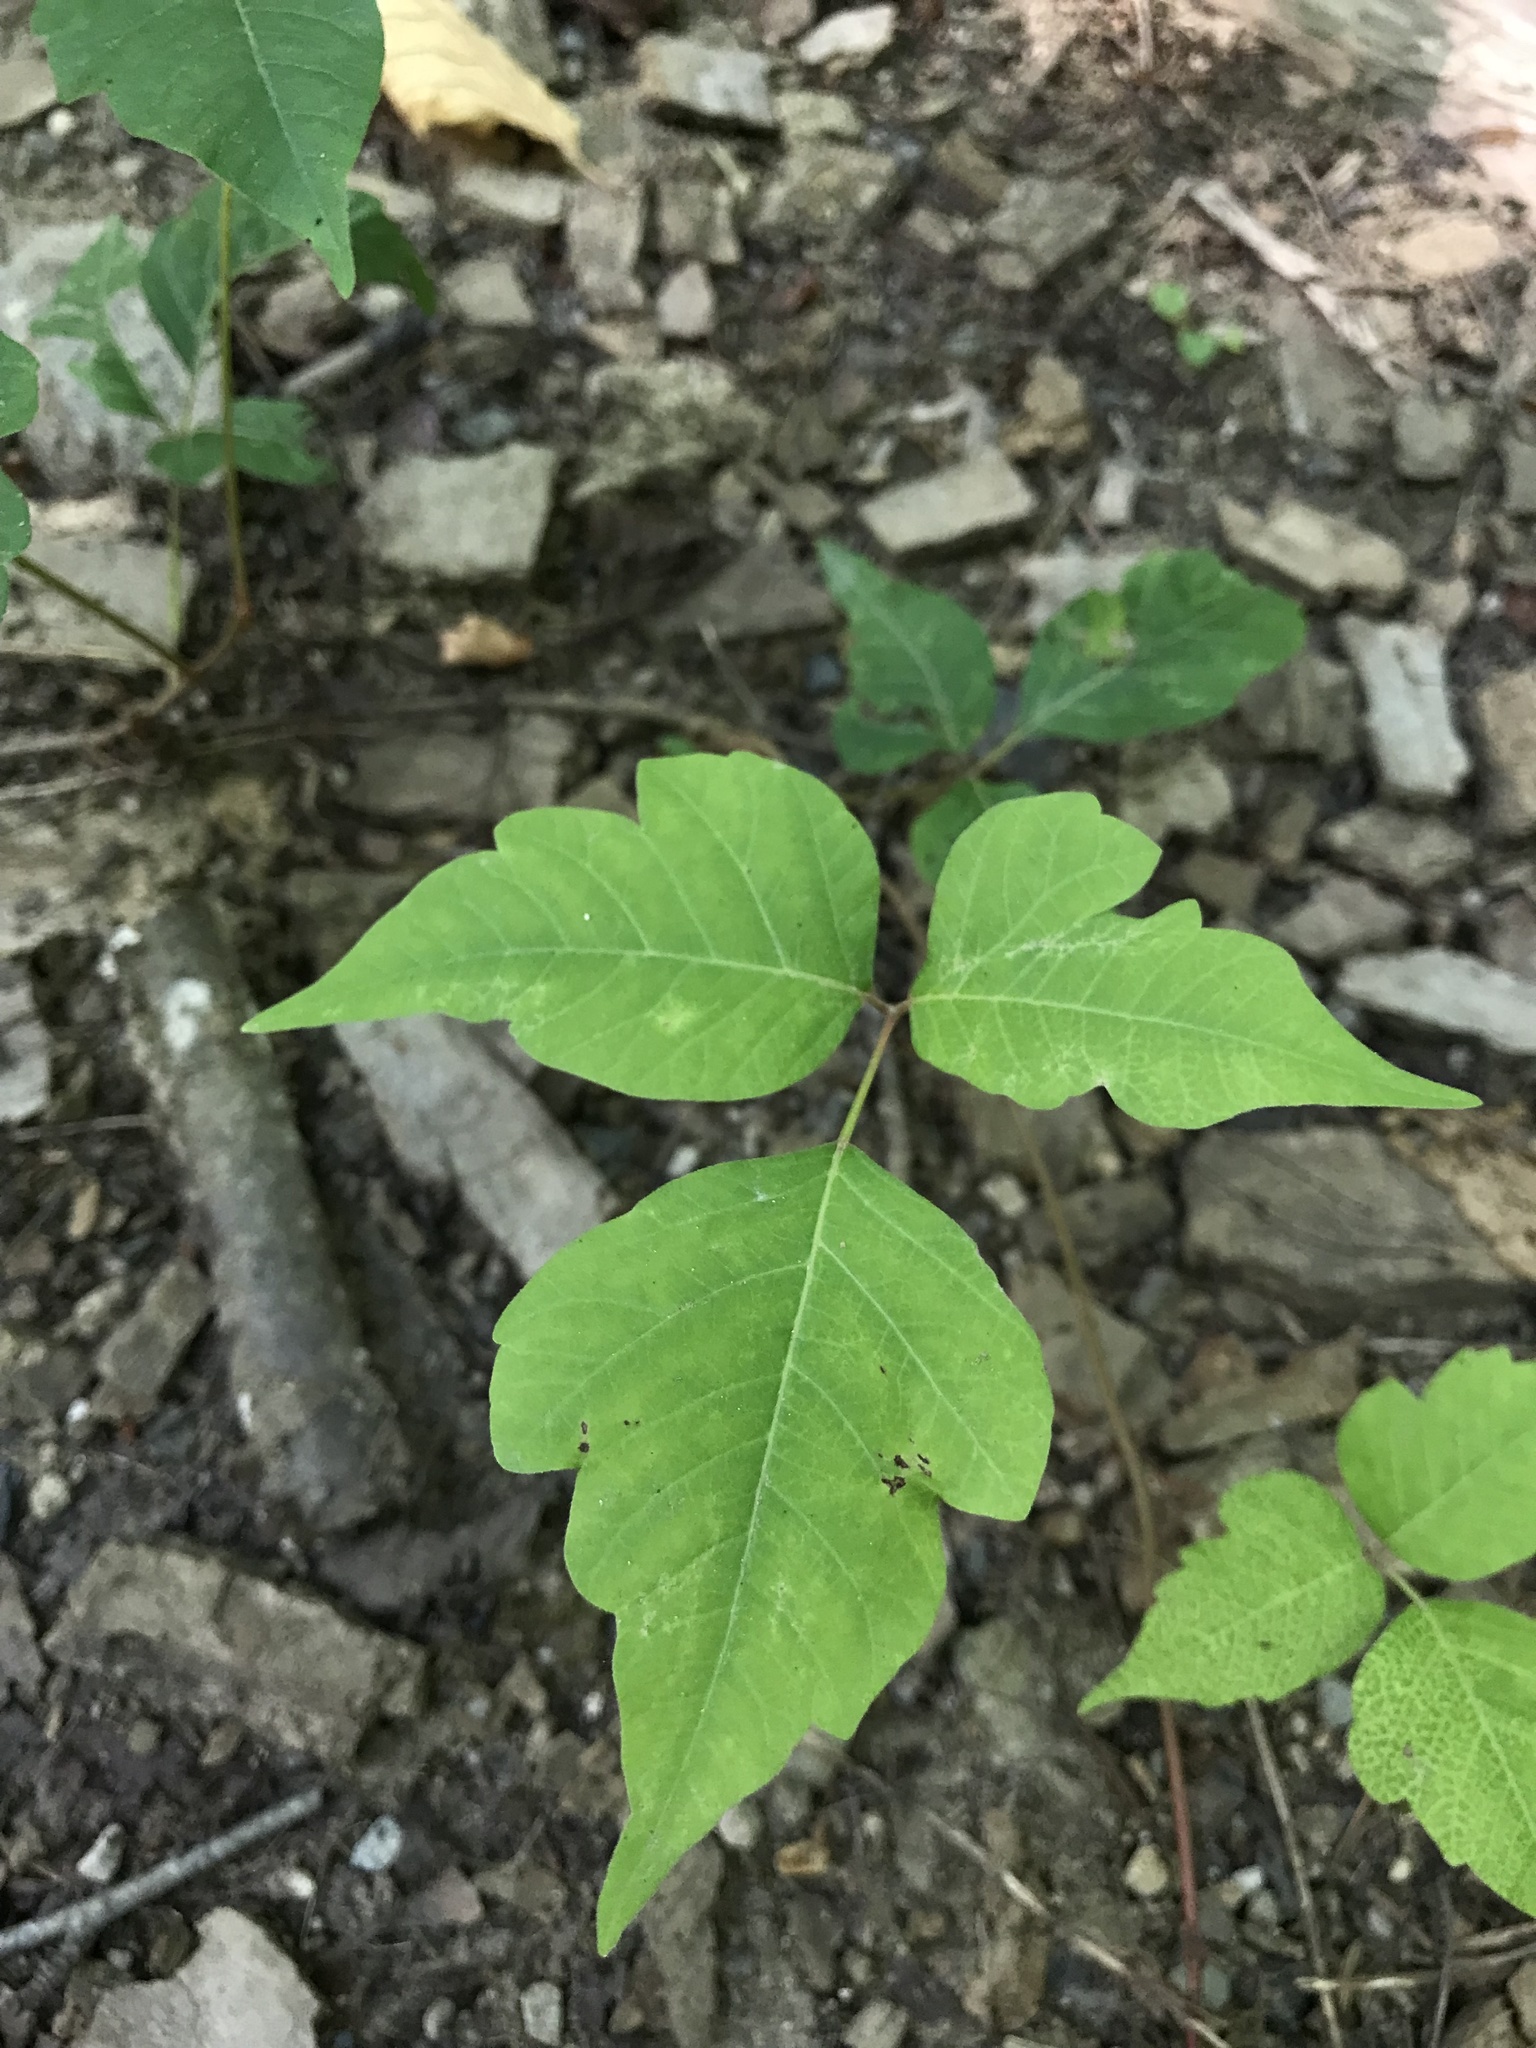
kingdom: Plantae
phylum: Tracheophyta
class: Magnoliopsida
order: Sapindales
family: Anacardiaceae
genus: Toxicodendron
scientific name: Toxicodendron radicans
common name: Poison ivy
